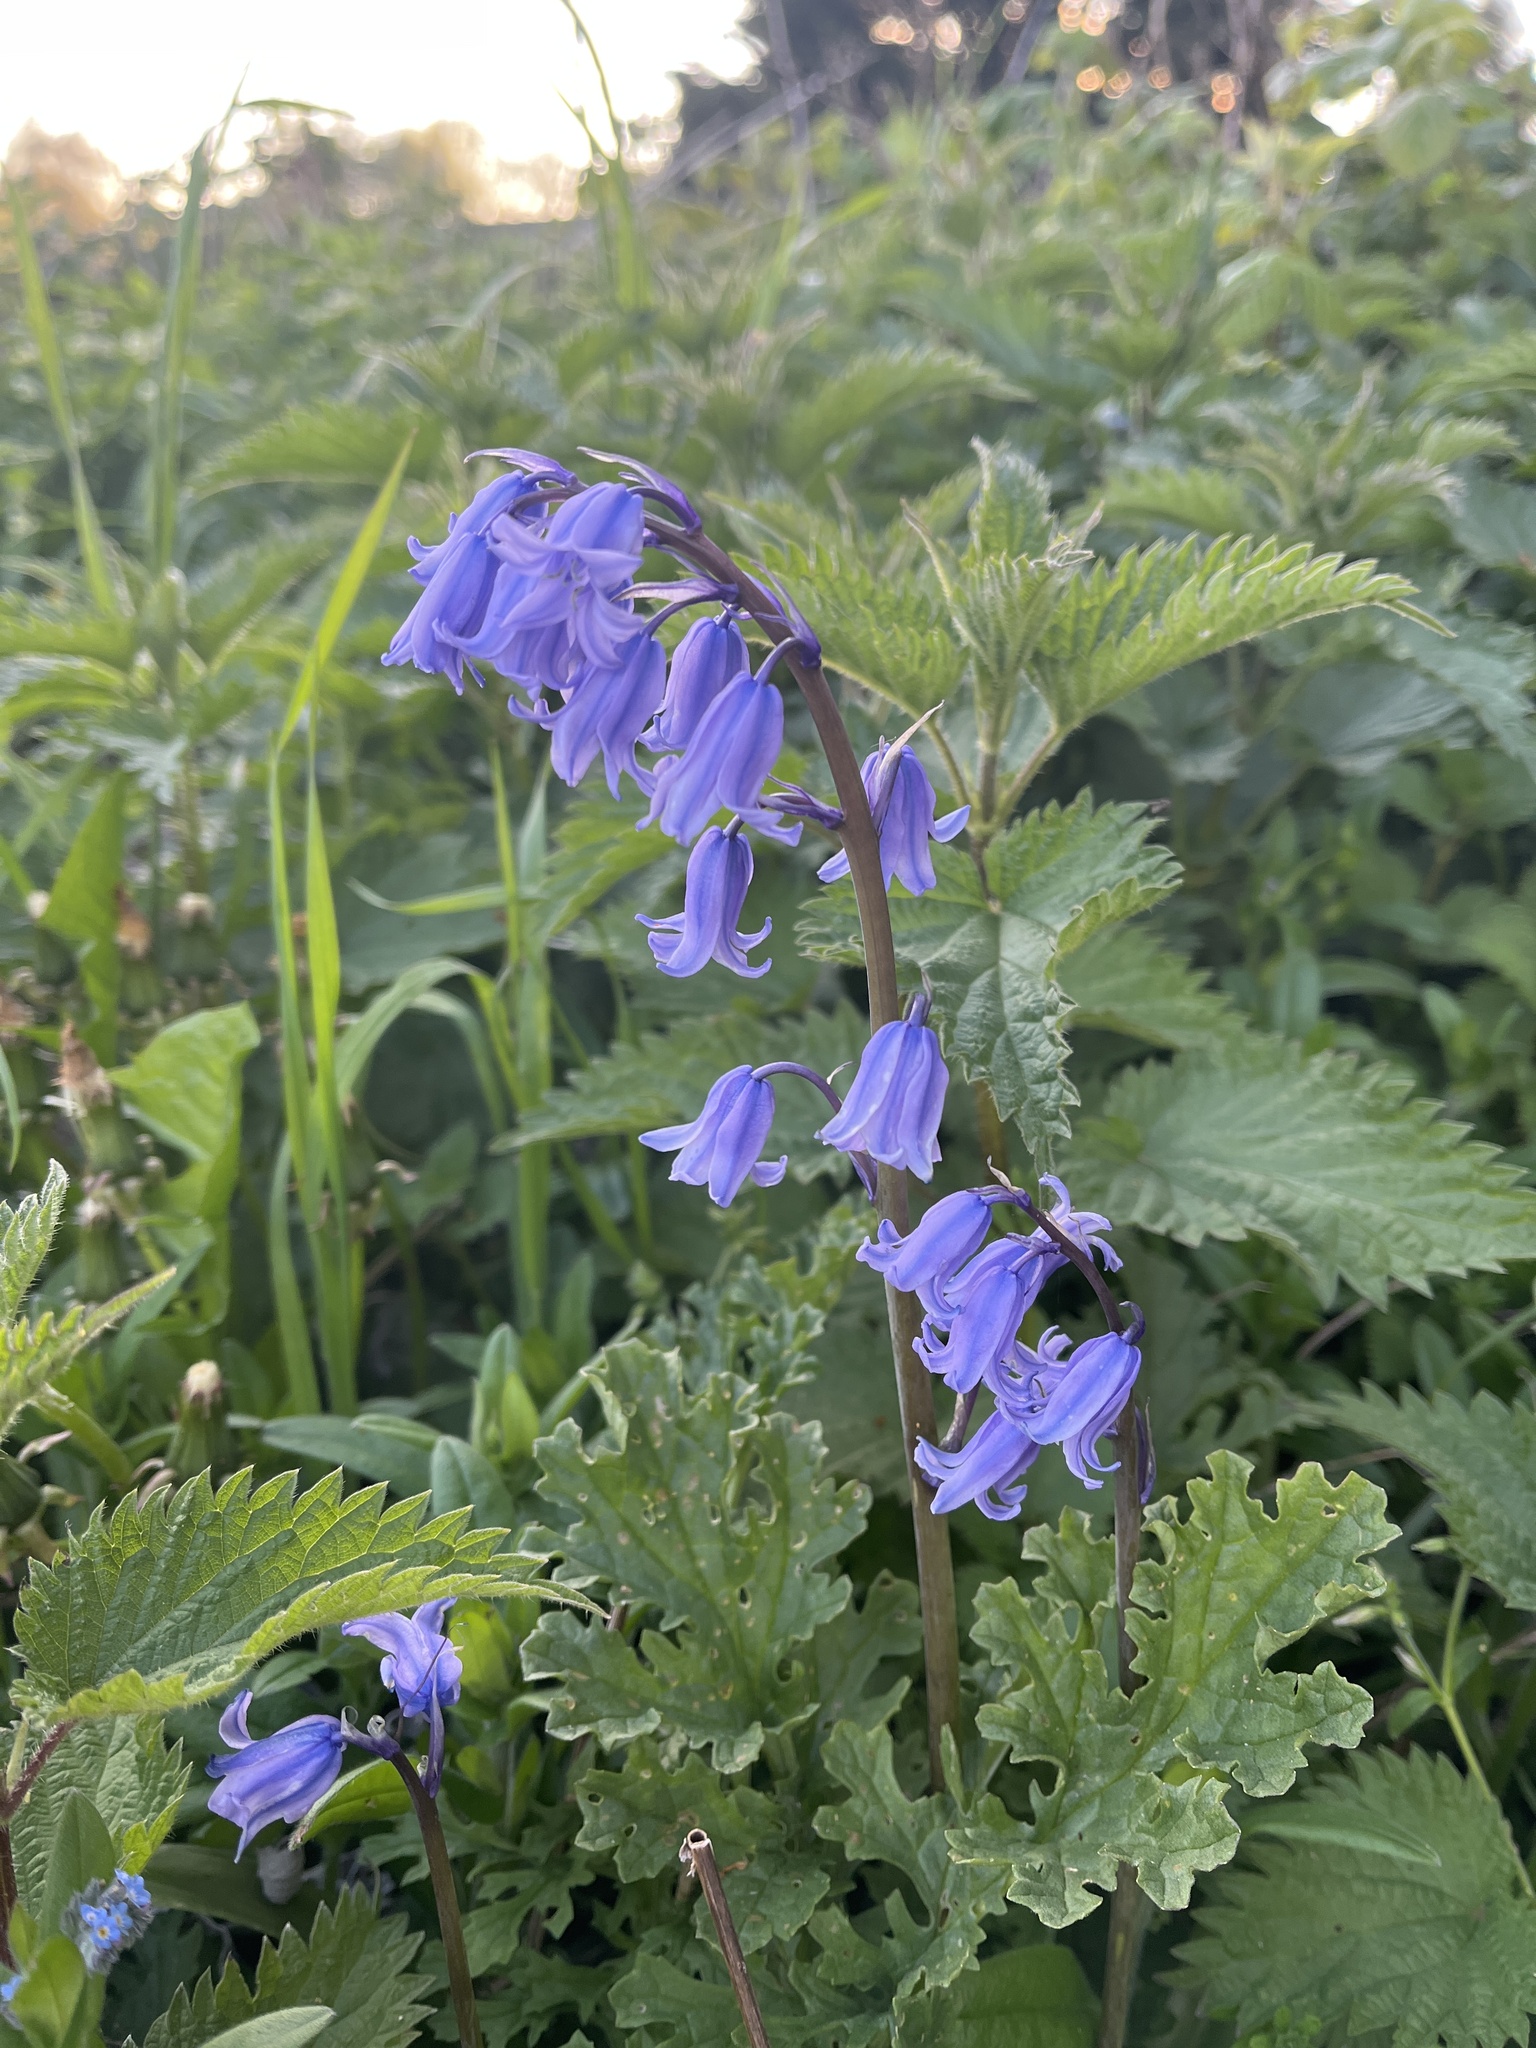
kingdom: Plantae
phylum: Tracheophyta
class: Liliopsida
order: Asparagales
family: Asparagaceae
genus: Hyacinthoides
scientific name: Hyacinthoides massartiana
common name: Hyacinthoides
